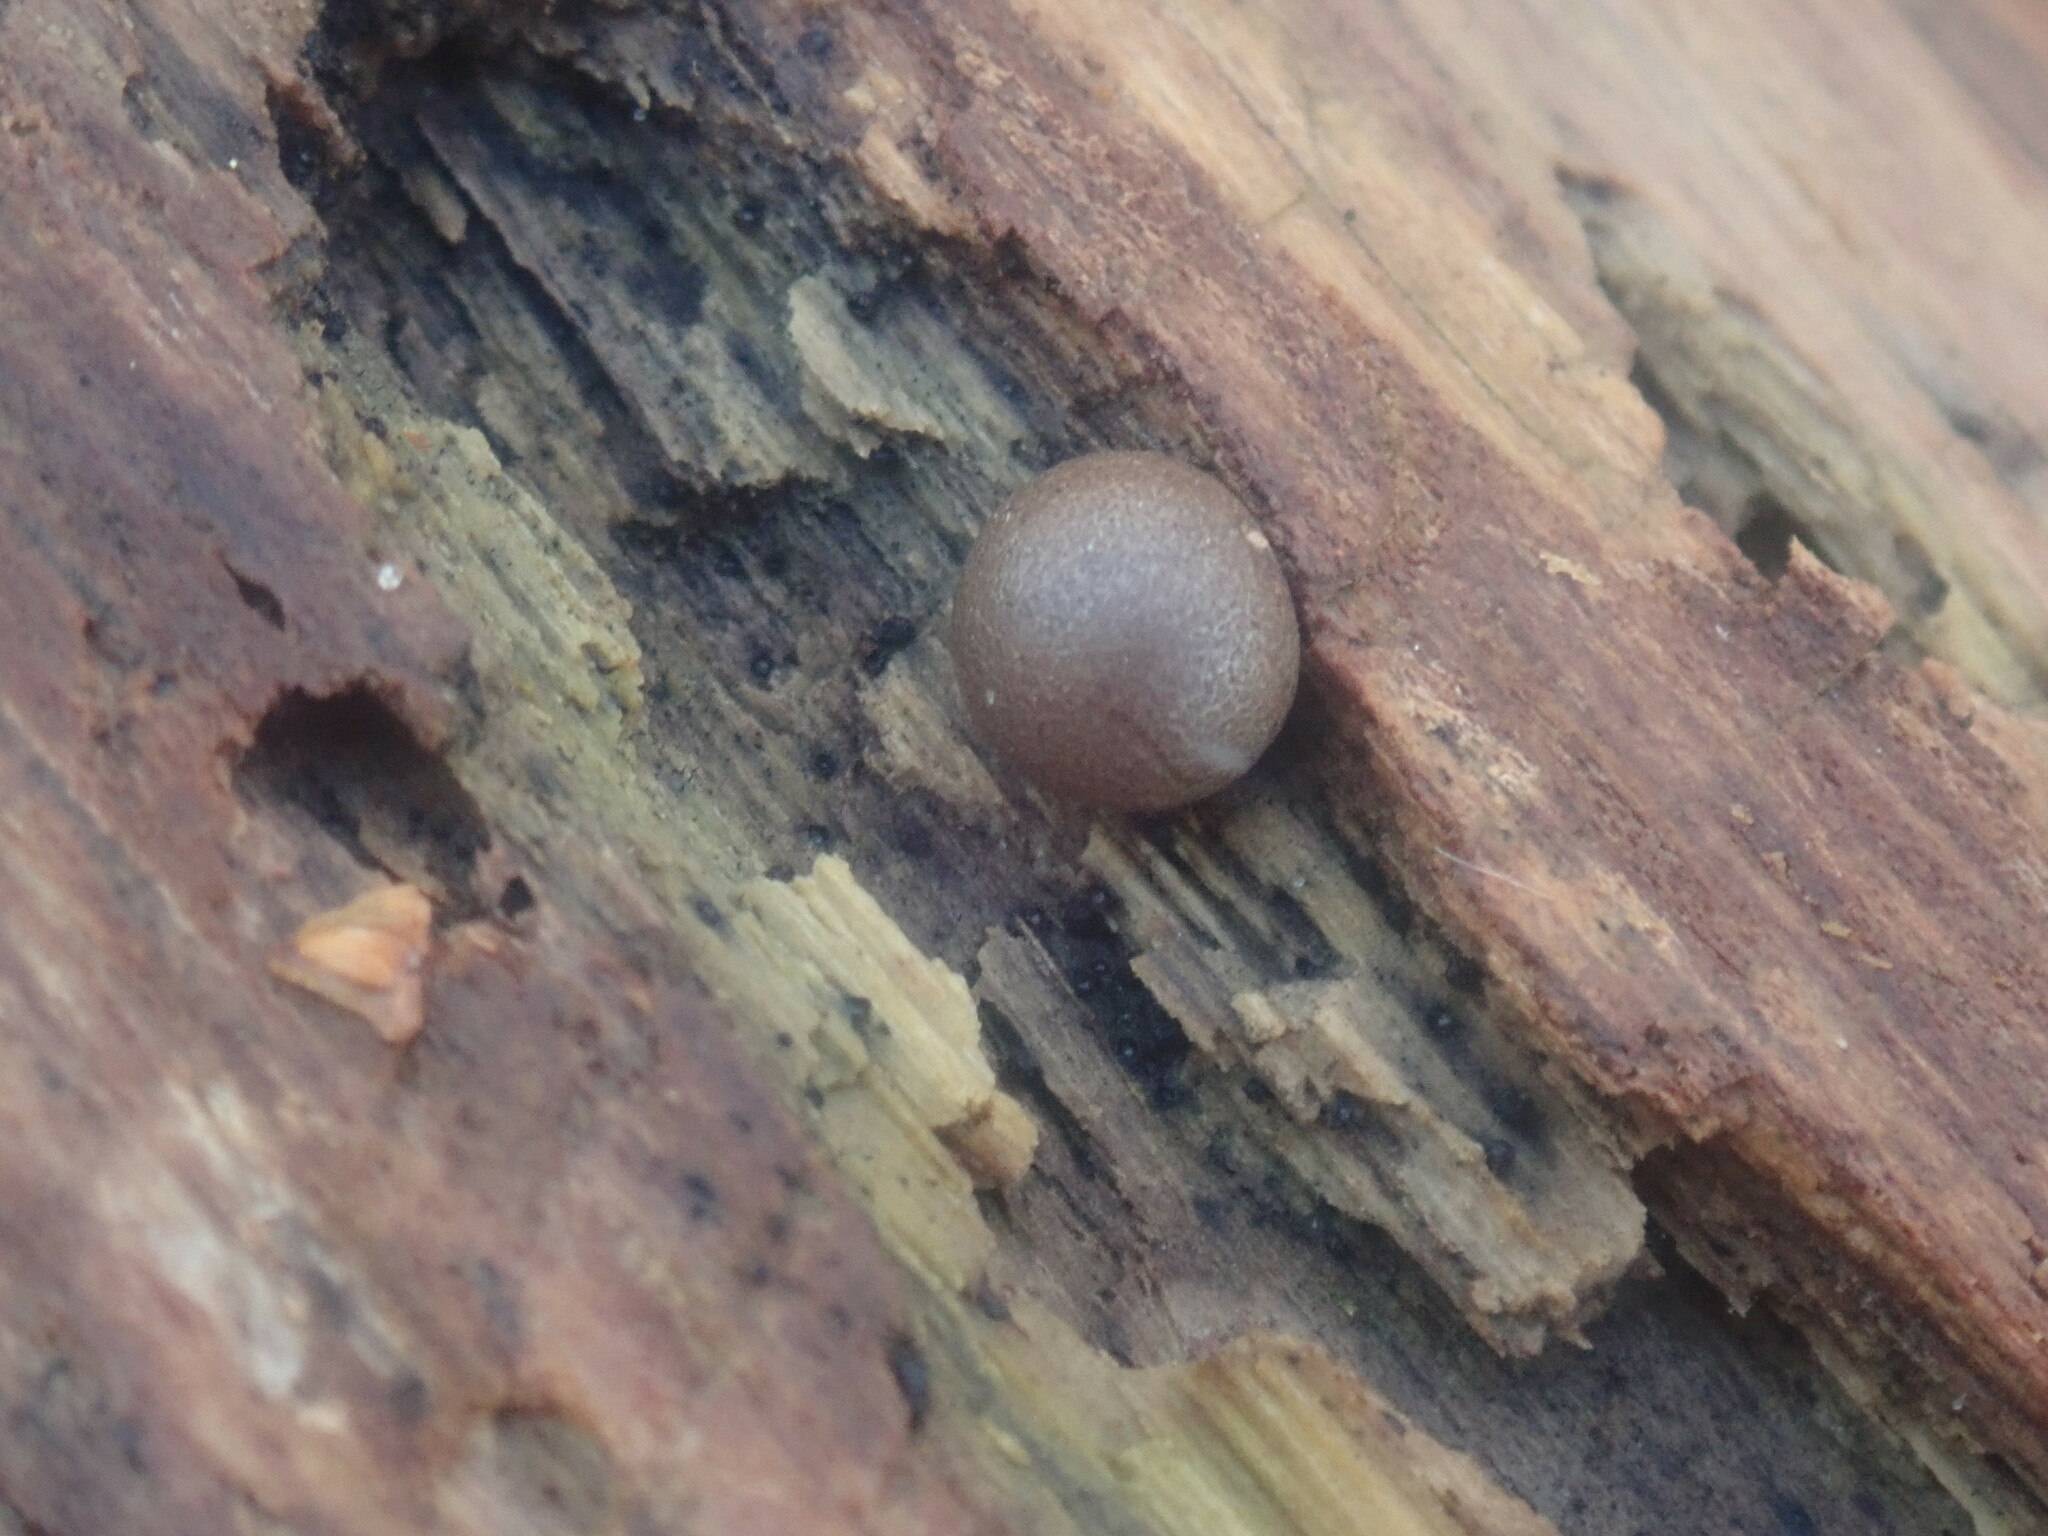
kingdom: Protozoa
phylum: Mycetozoa
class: Myxomycetes
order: Cribrariales
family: Tubiferaceae
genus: Lycogala
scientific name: Lycogala
